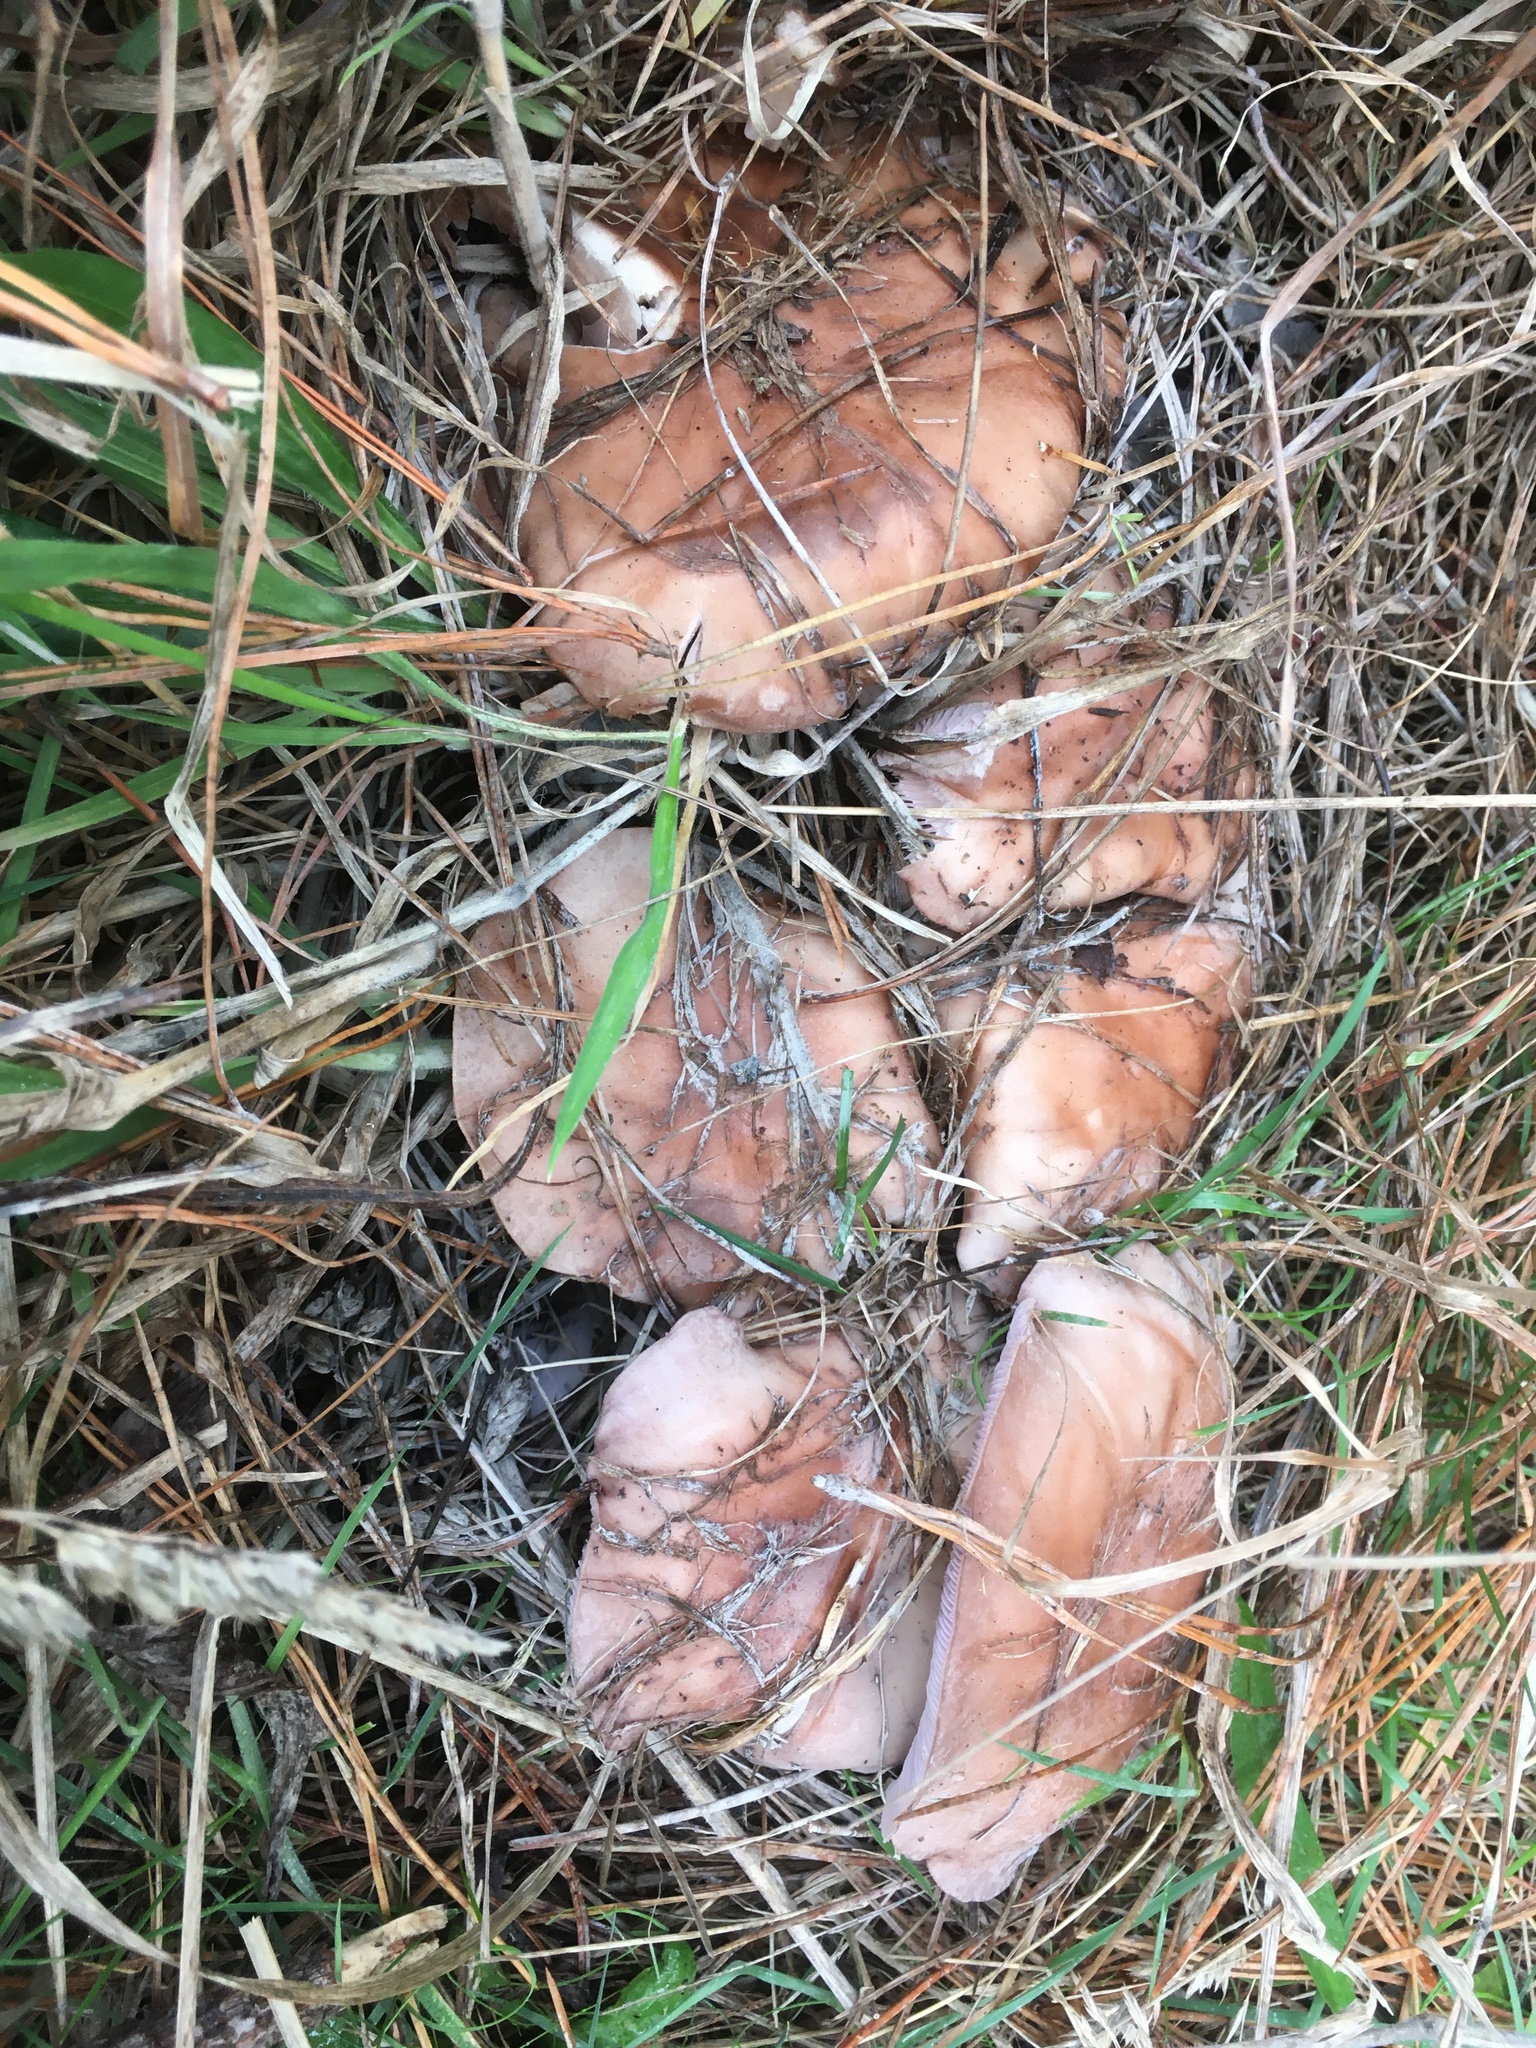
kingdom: Fungi
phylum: Basidiomycota
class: Agaricomycetes
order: Agaricales
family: Tricholomataceae
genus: Collybia
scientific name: Collybia
